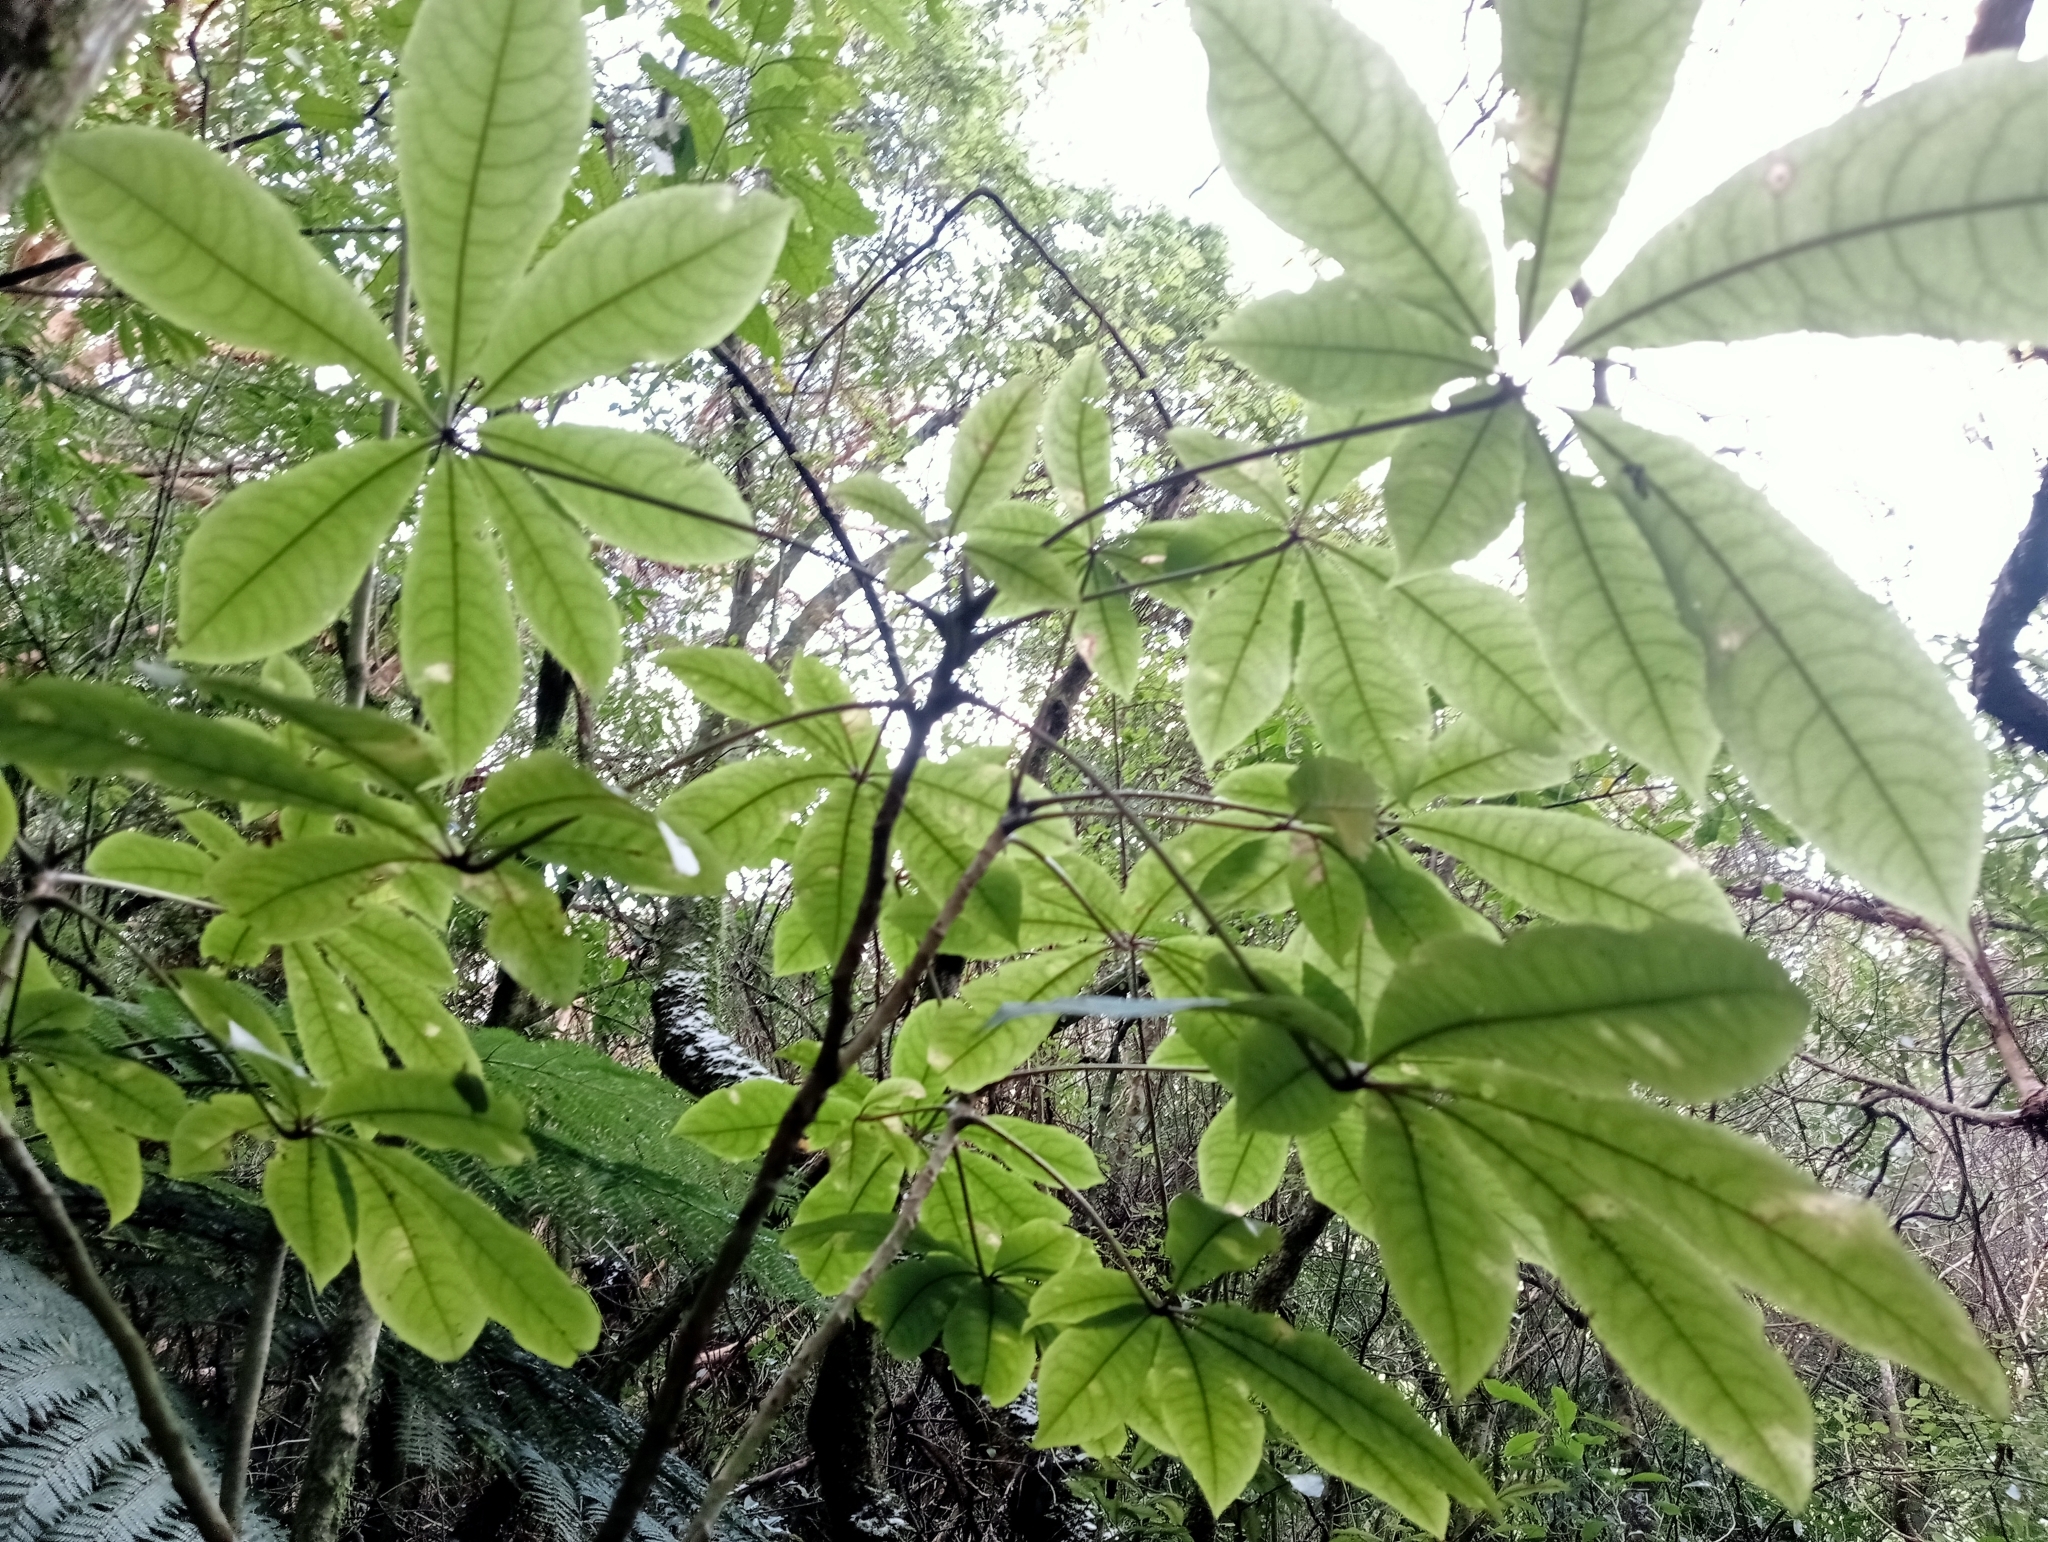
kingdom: Plantae
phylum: Tracheophyta
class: Magnoliopsida
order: Apiales
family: Araliaceae
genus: Schefflera
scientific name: Schefflera digitata
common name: Pate
